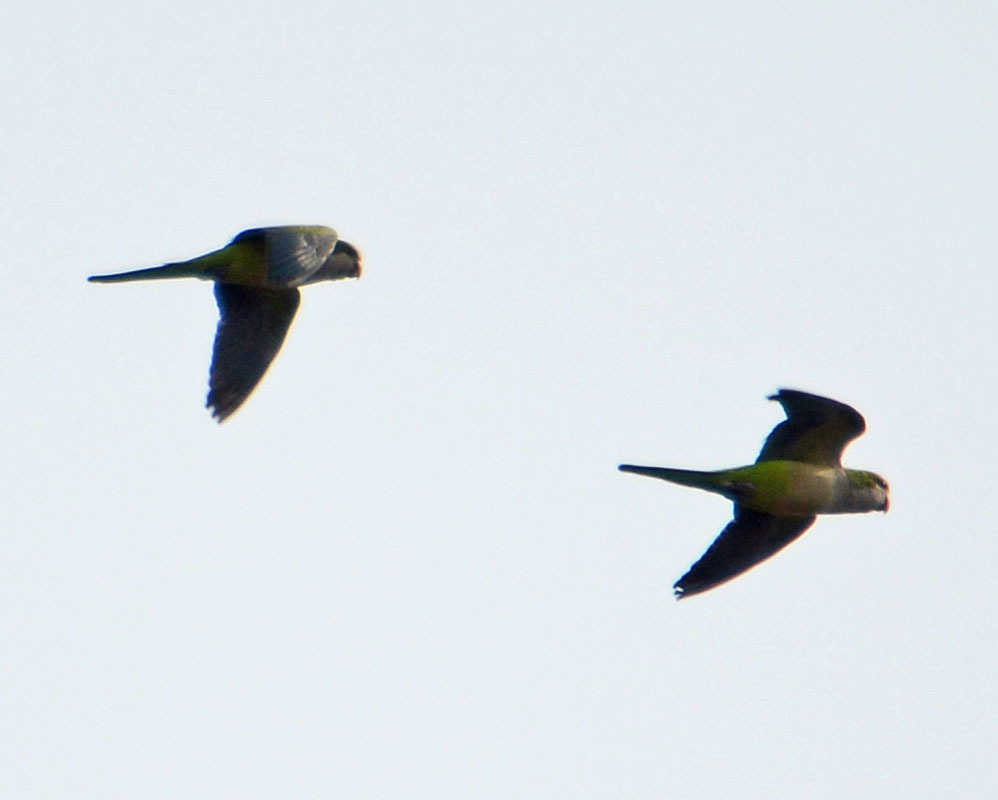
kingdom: Animalia
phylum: Chordata
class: Aves
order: Psittaciformes
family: Psittacidae
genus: Myiopsitta
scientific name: Myiopsitta monachus
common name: Monk parakeet
